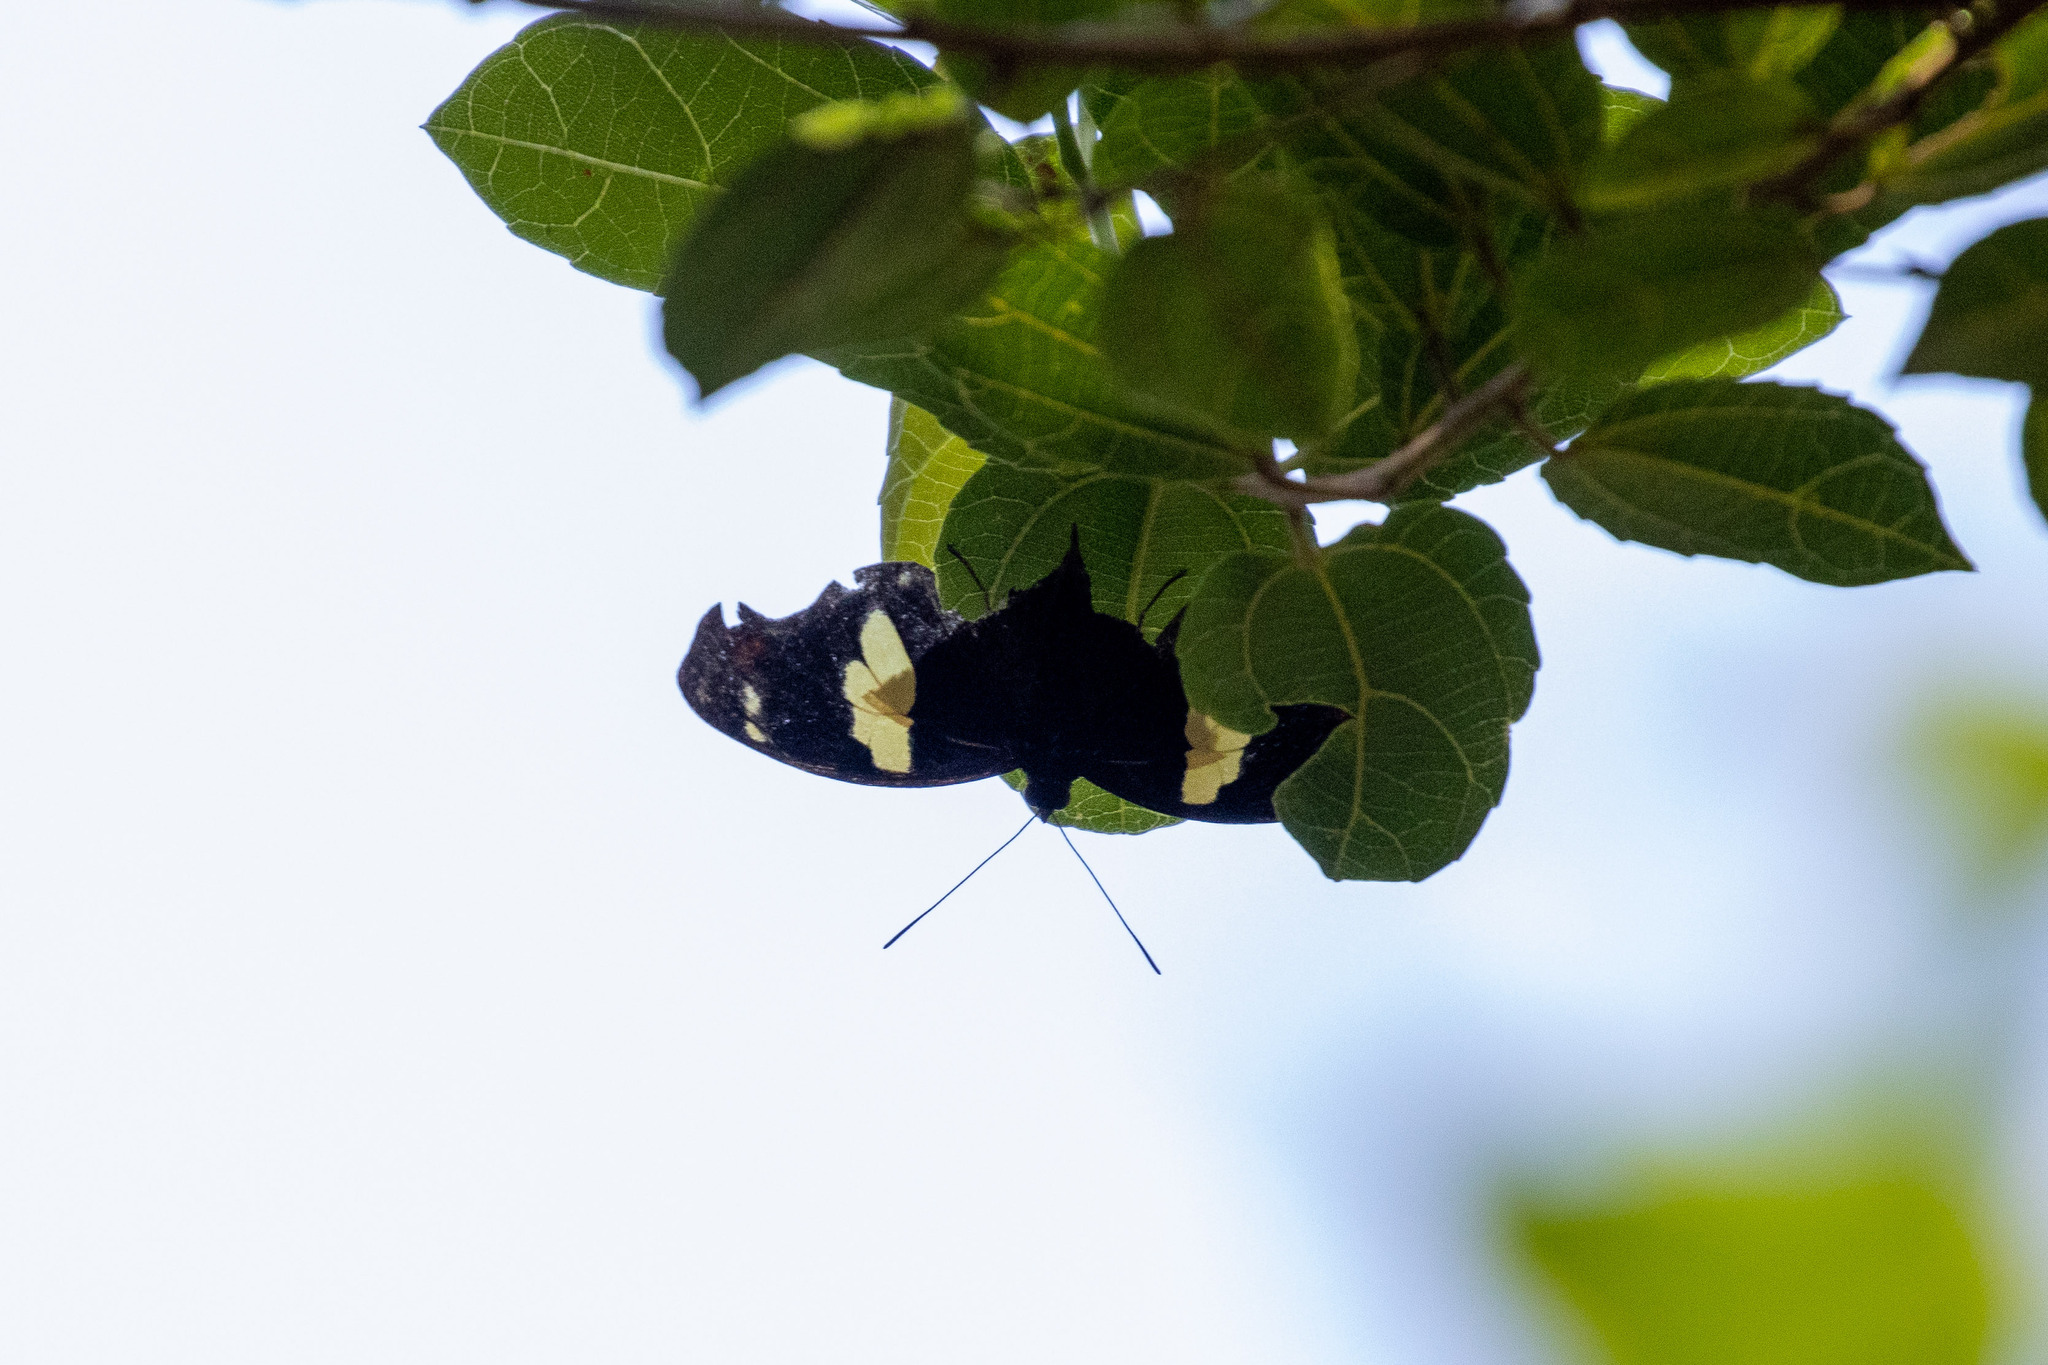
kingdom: Animalia
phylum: Arthropoda
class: Insecta
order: Lepidoptera
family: Nymphalidae
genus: Catonephele
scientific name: Catonephele numilia
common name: Blue-frosted banner
